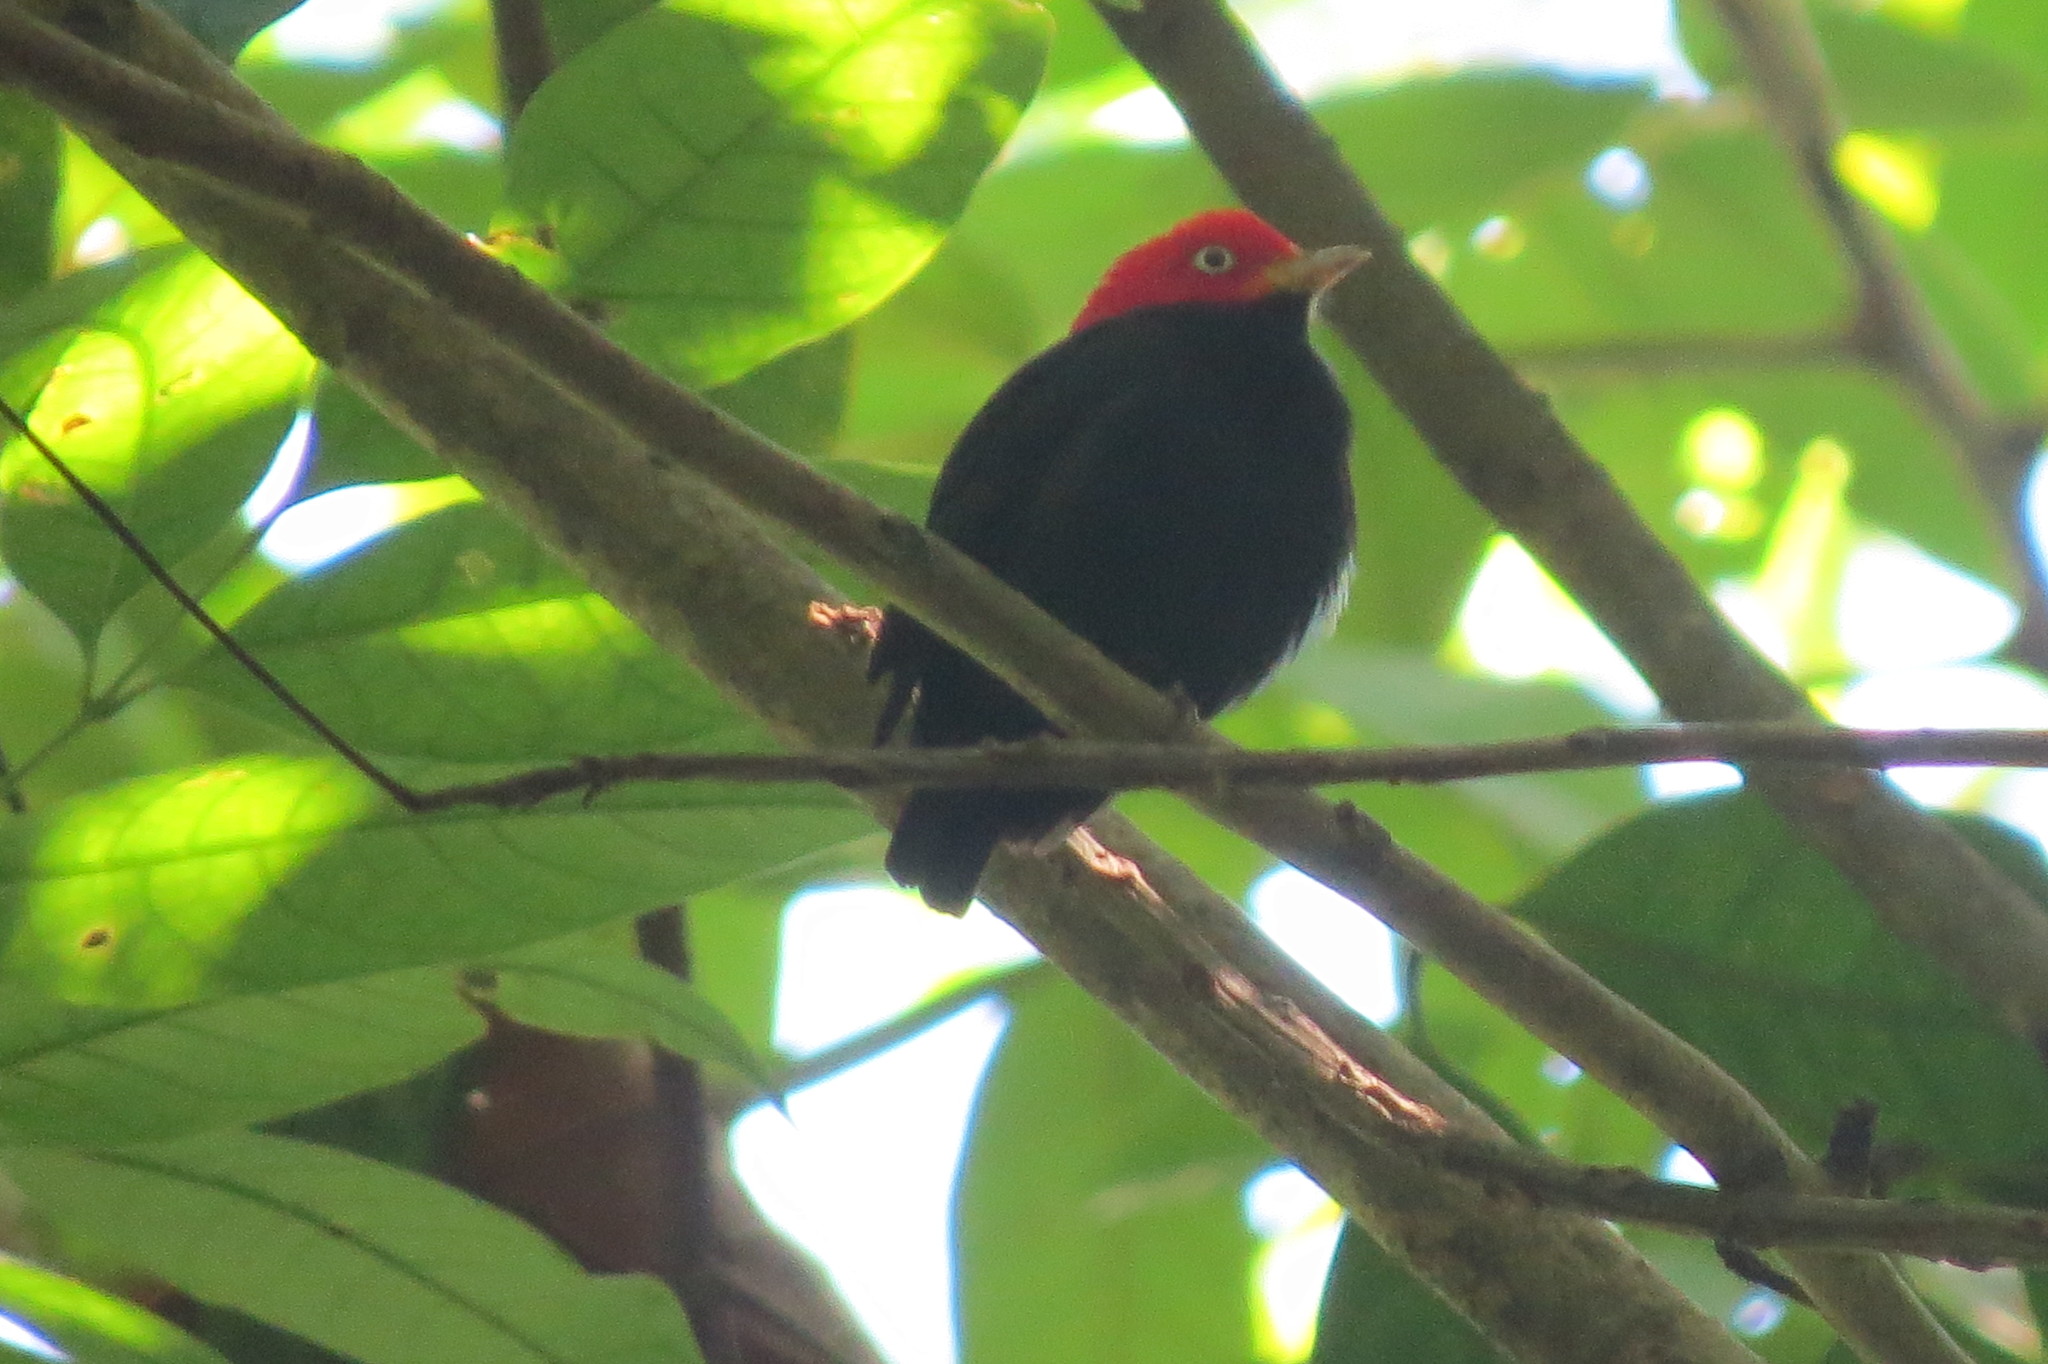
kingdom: Animalia
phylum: Chordata
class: Aves
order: Passeriformes
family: Pipridae
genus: Pipra
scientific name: Pipra mentalis
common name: Red-capped manakin
